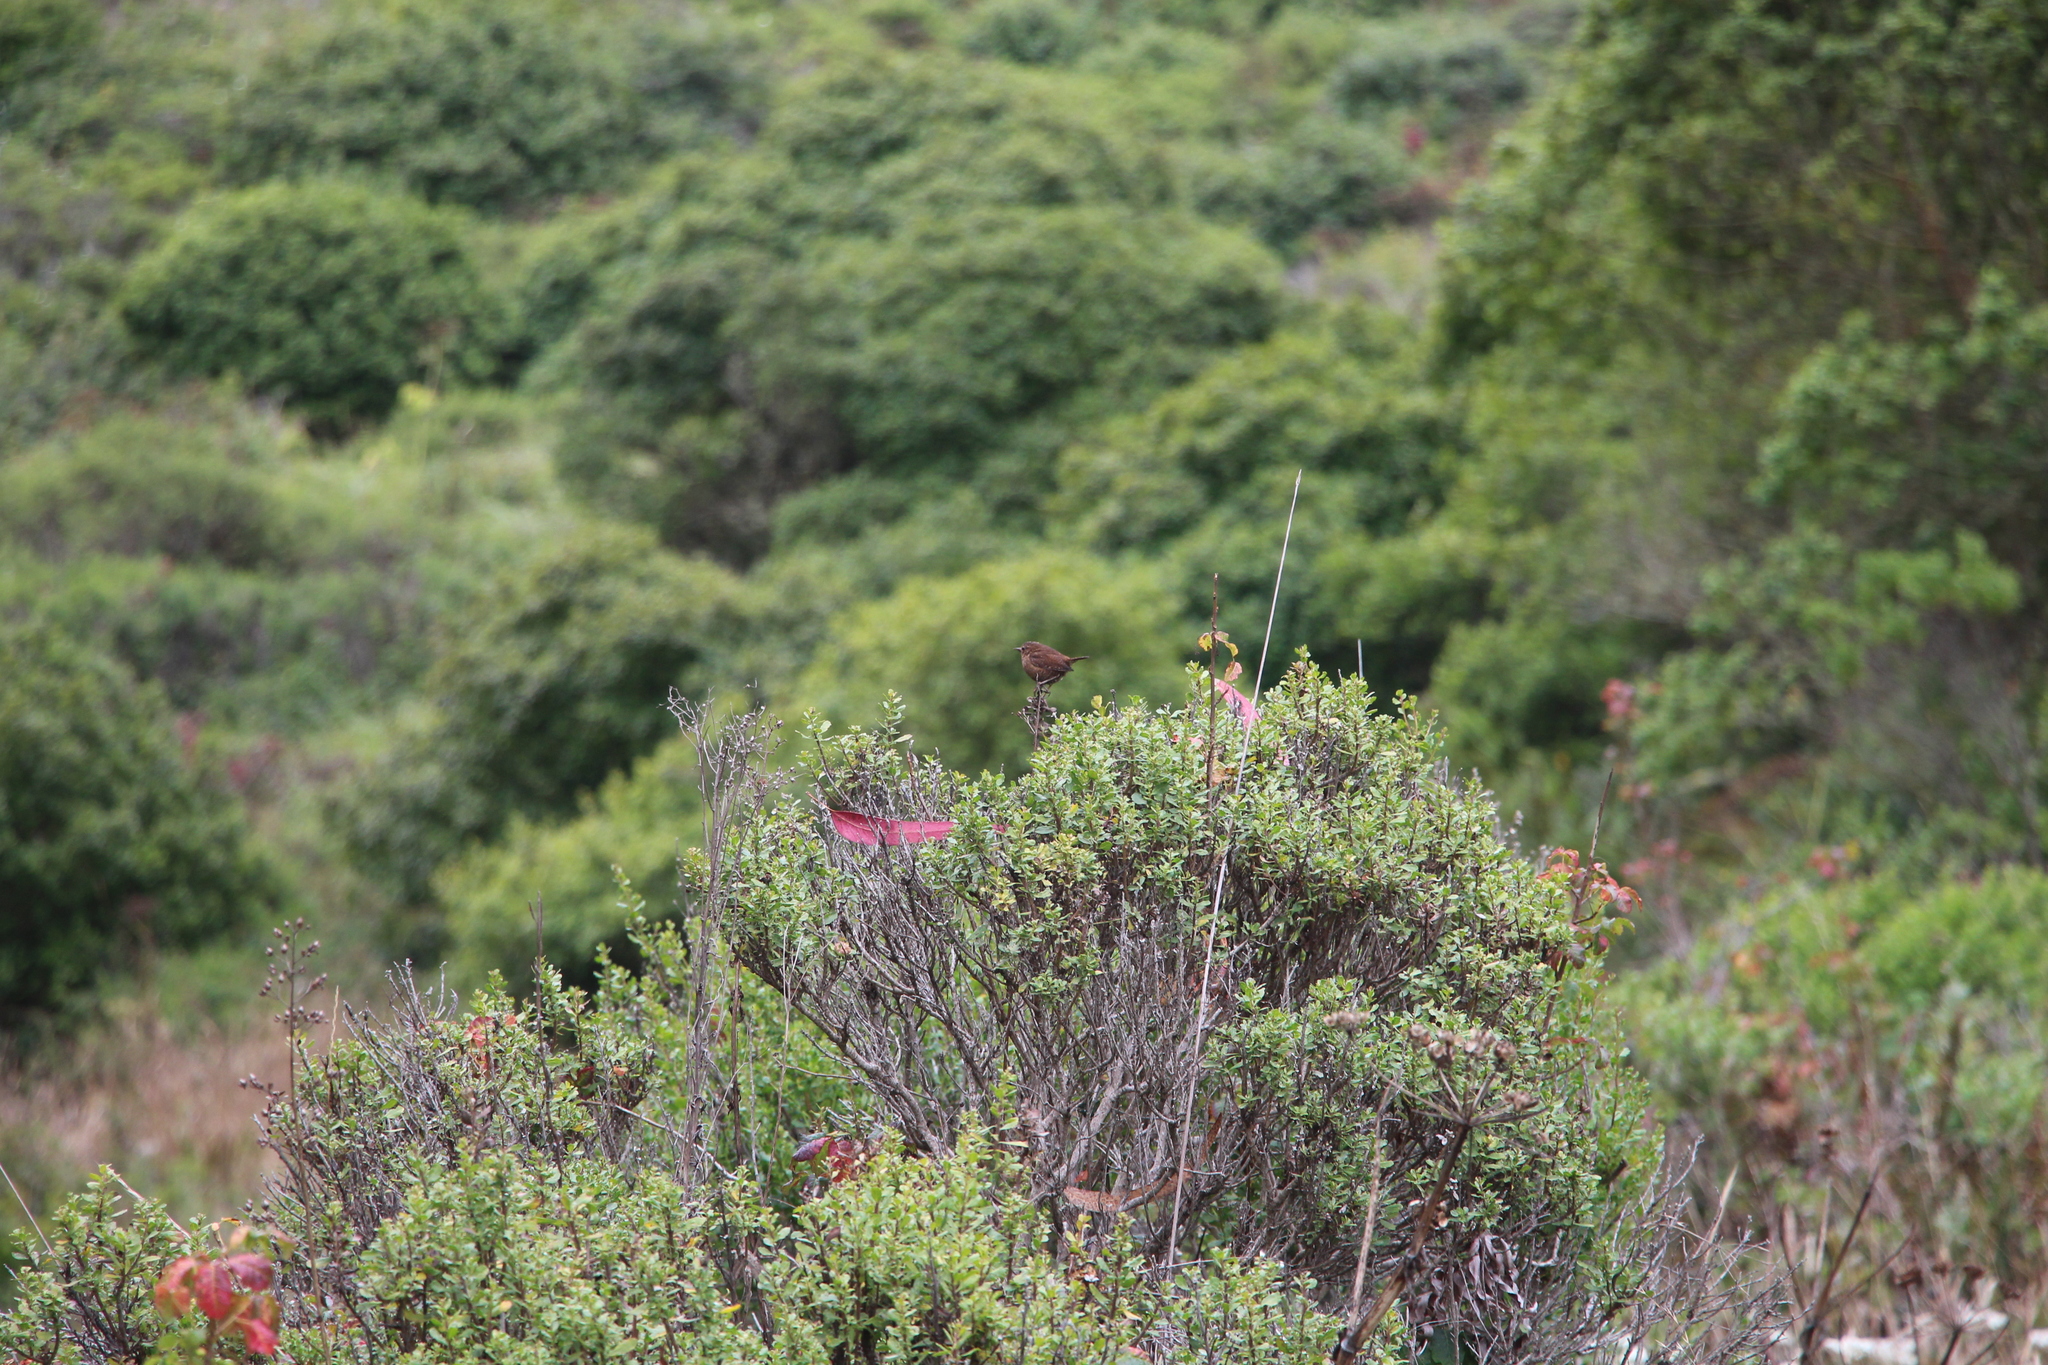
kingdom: Animalia
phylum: Chordata
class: Aves
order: Passeriformes
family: Troglodytidae
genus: Troglodytes
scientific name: Troglodytes pacificus
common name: Pacific wren
